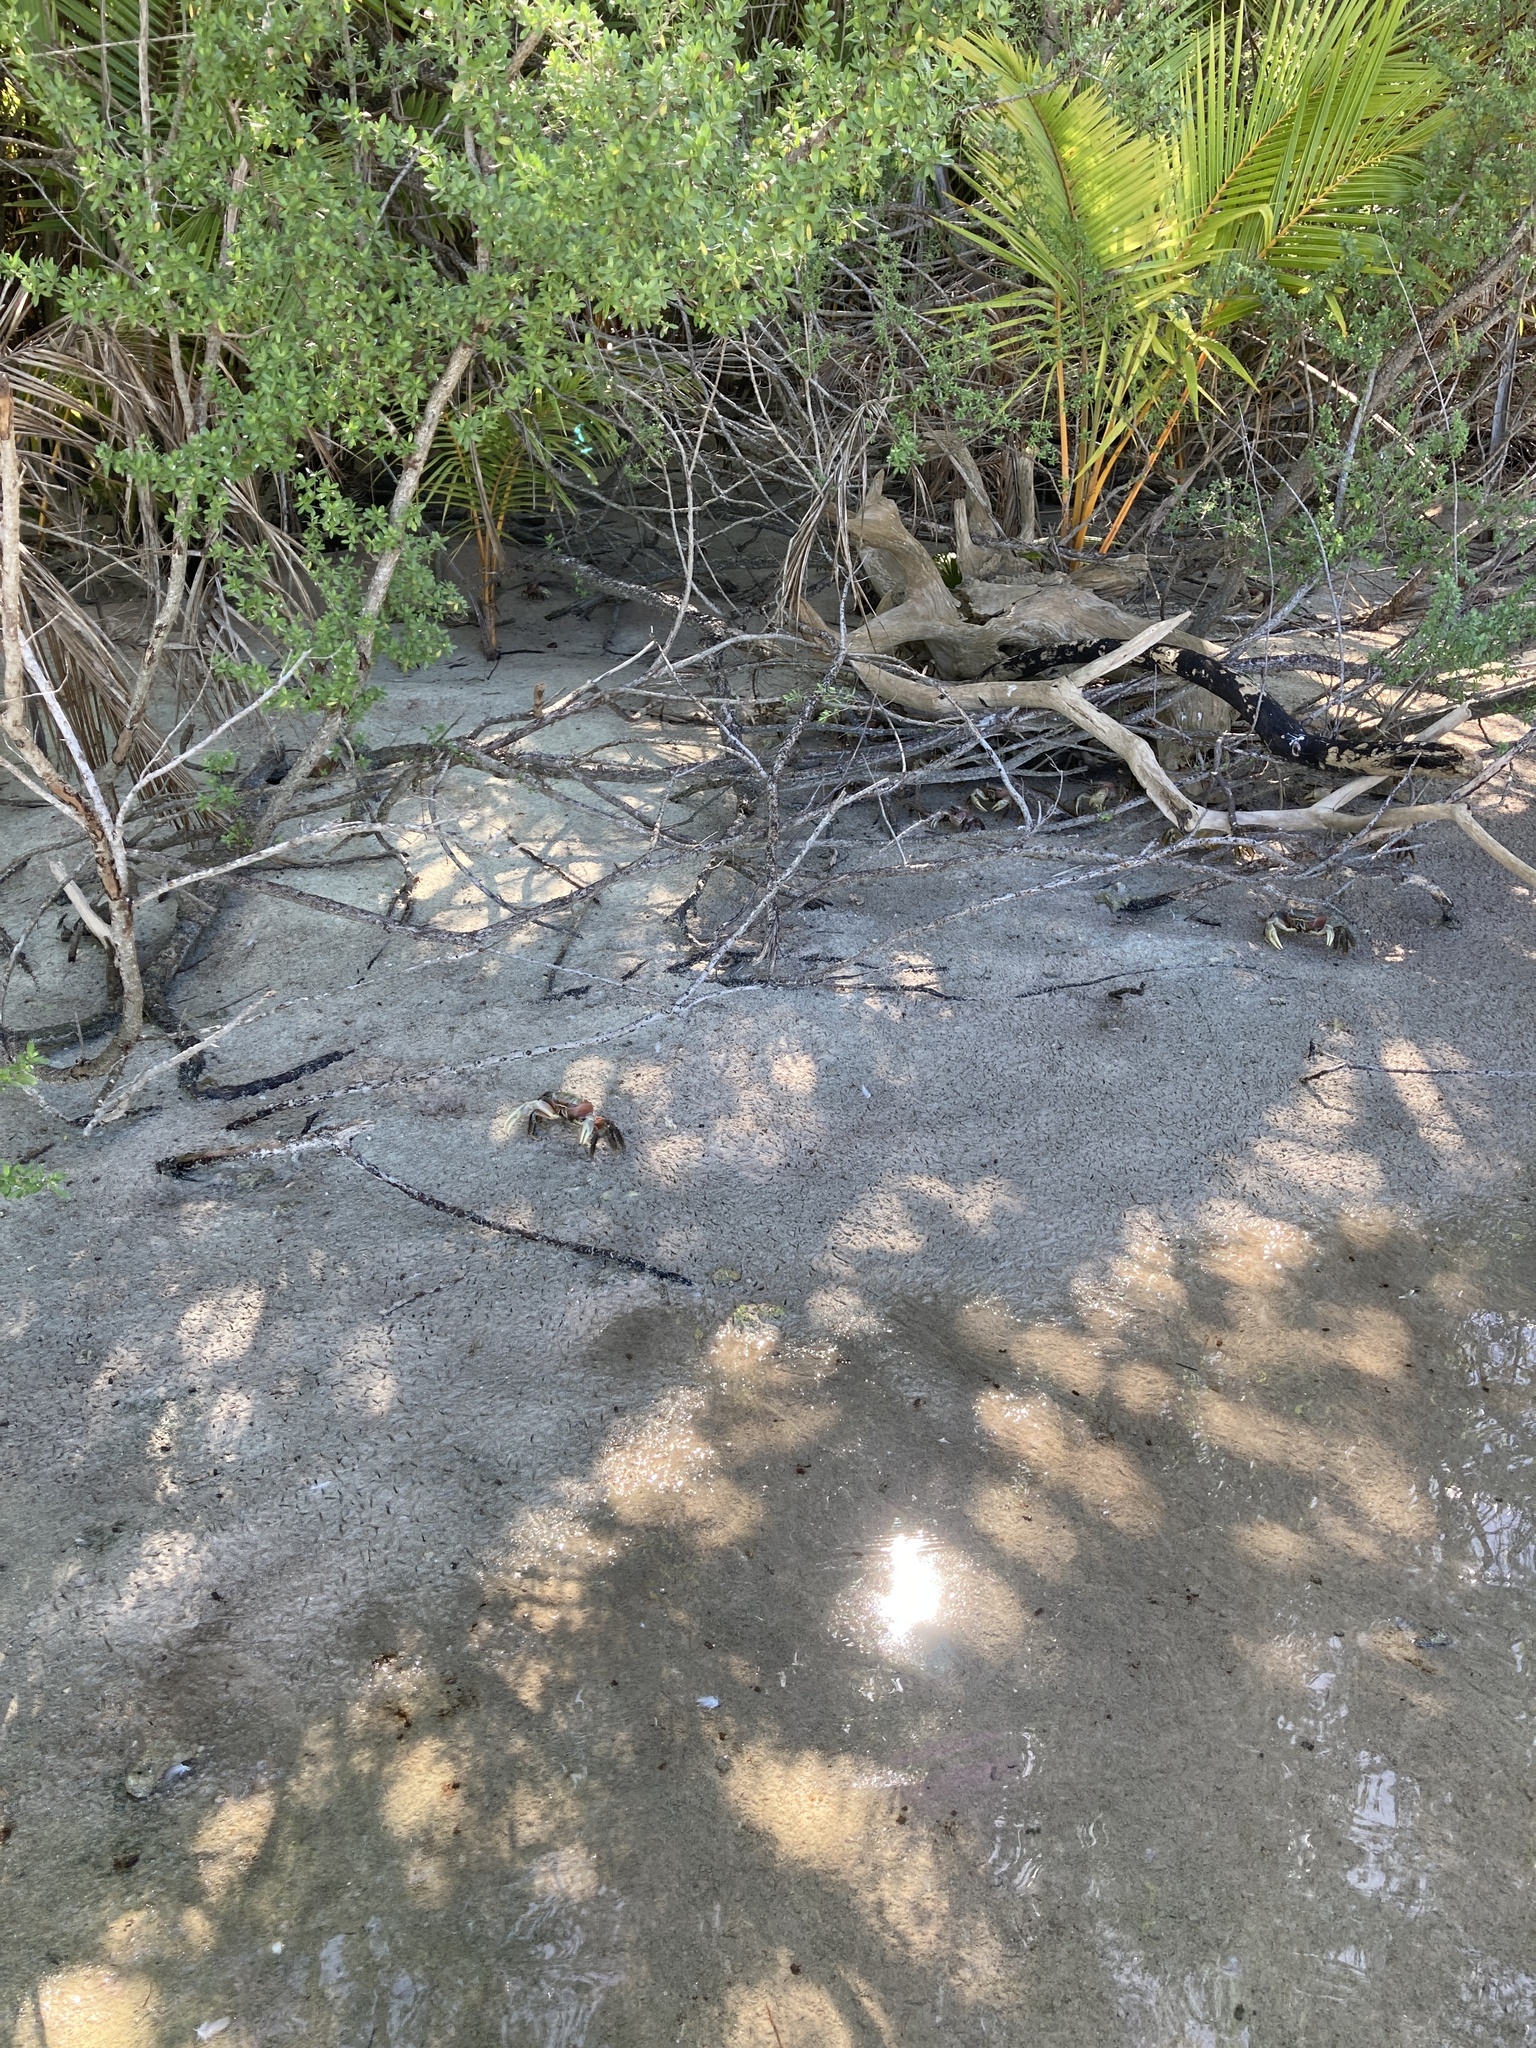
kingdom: Animalia
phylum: Arthropoda
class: Malacostraca
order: Decapoda
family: Gecarcinidae
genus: Cardisoma
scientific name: Cardisoma carnifex
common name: Brown land crab
